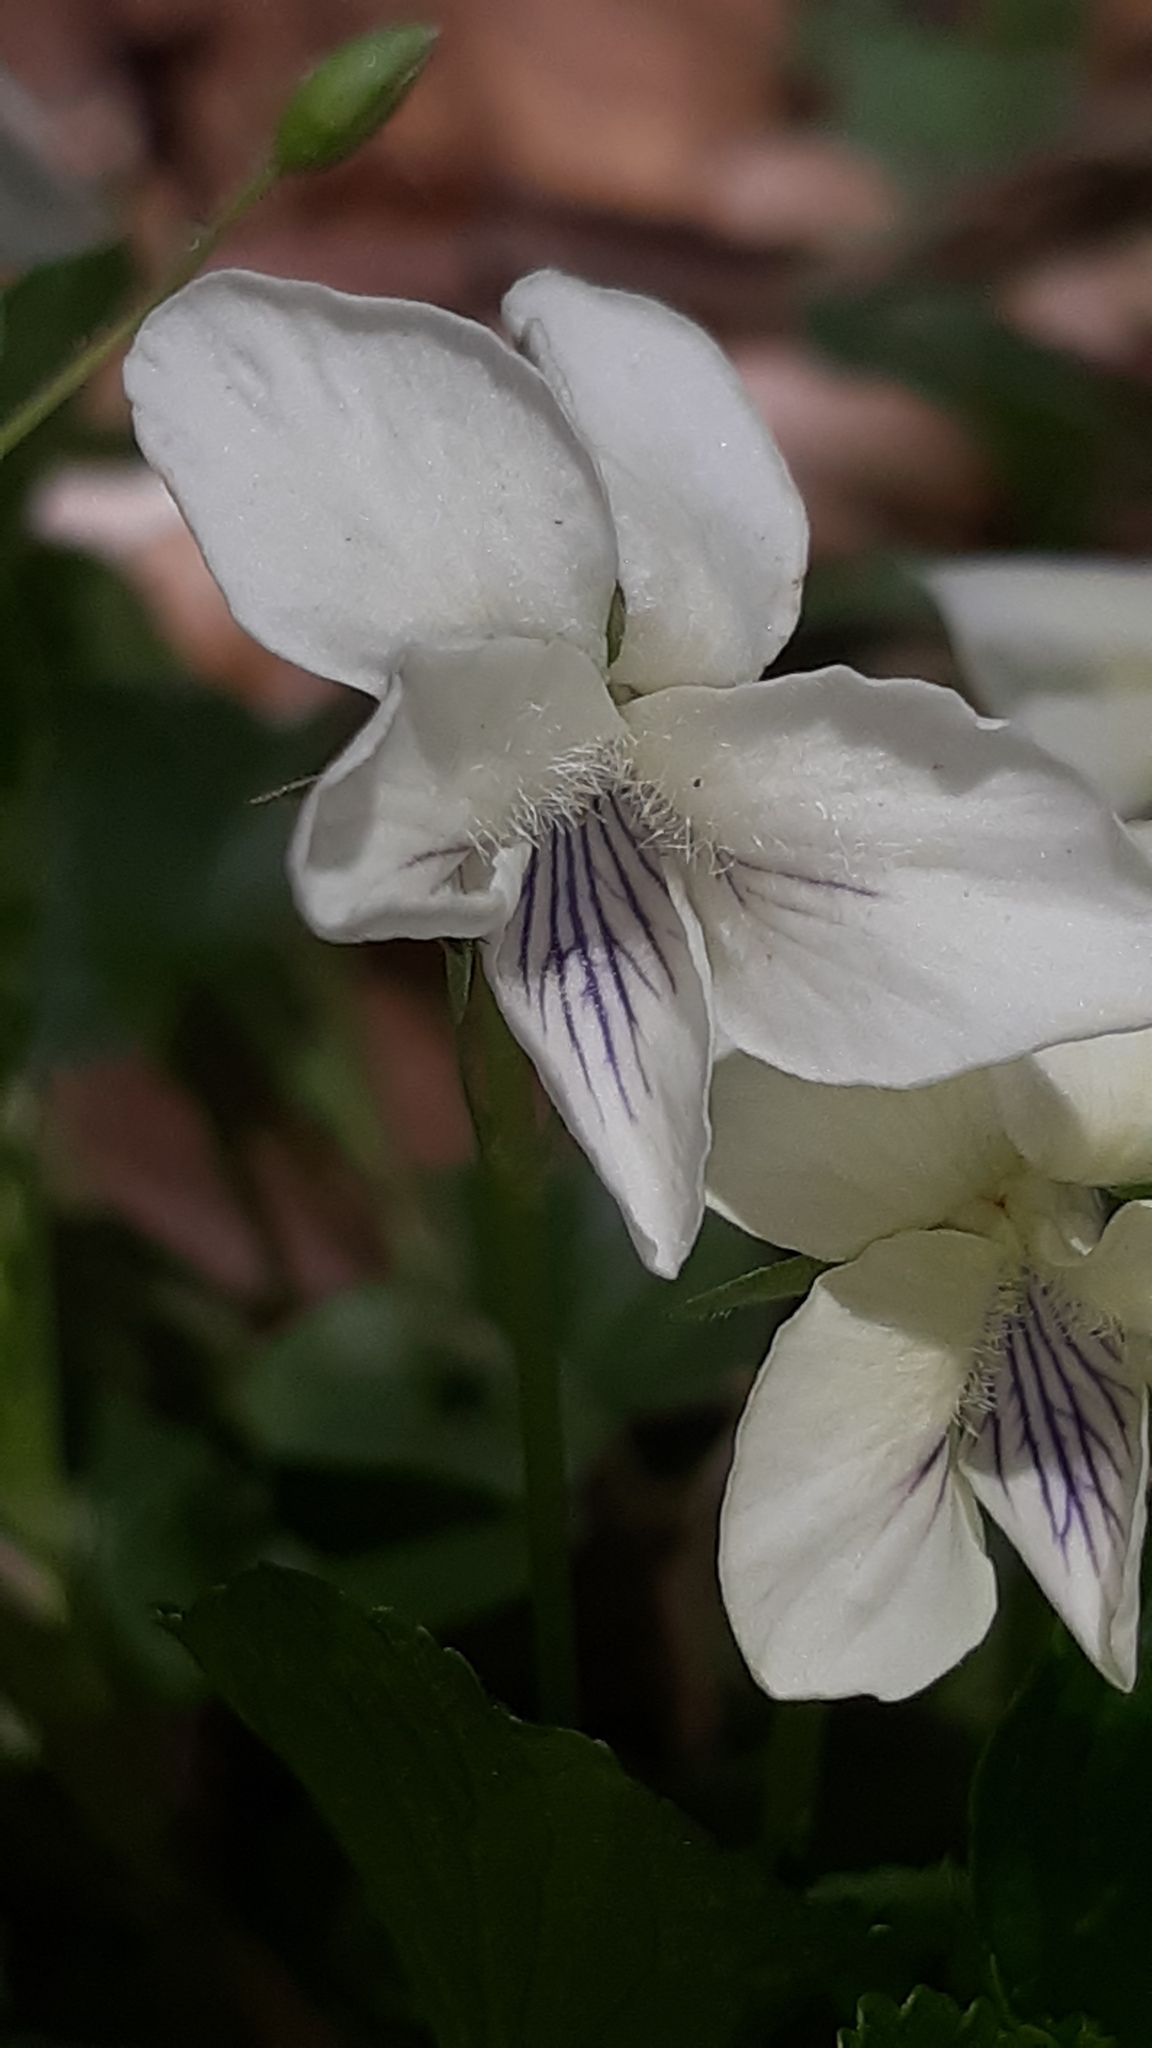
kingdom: Plantae
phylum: Tracheophyta
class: Magnoliopsida
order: Malpighiales
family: Violaceae
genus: Viola
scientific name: Viola striata
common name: Cream violet
